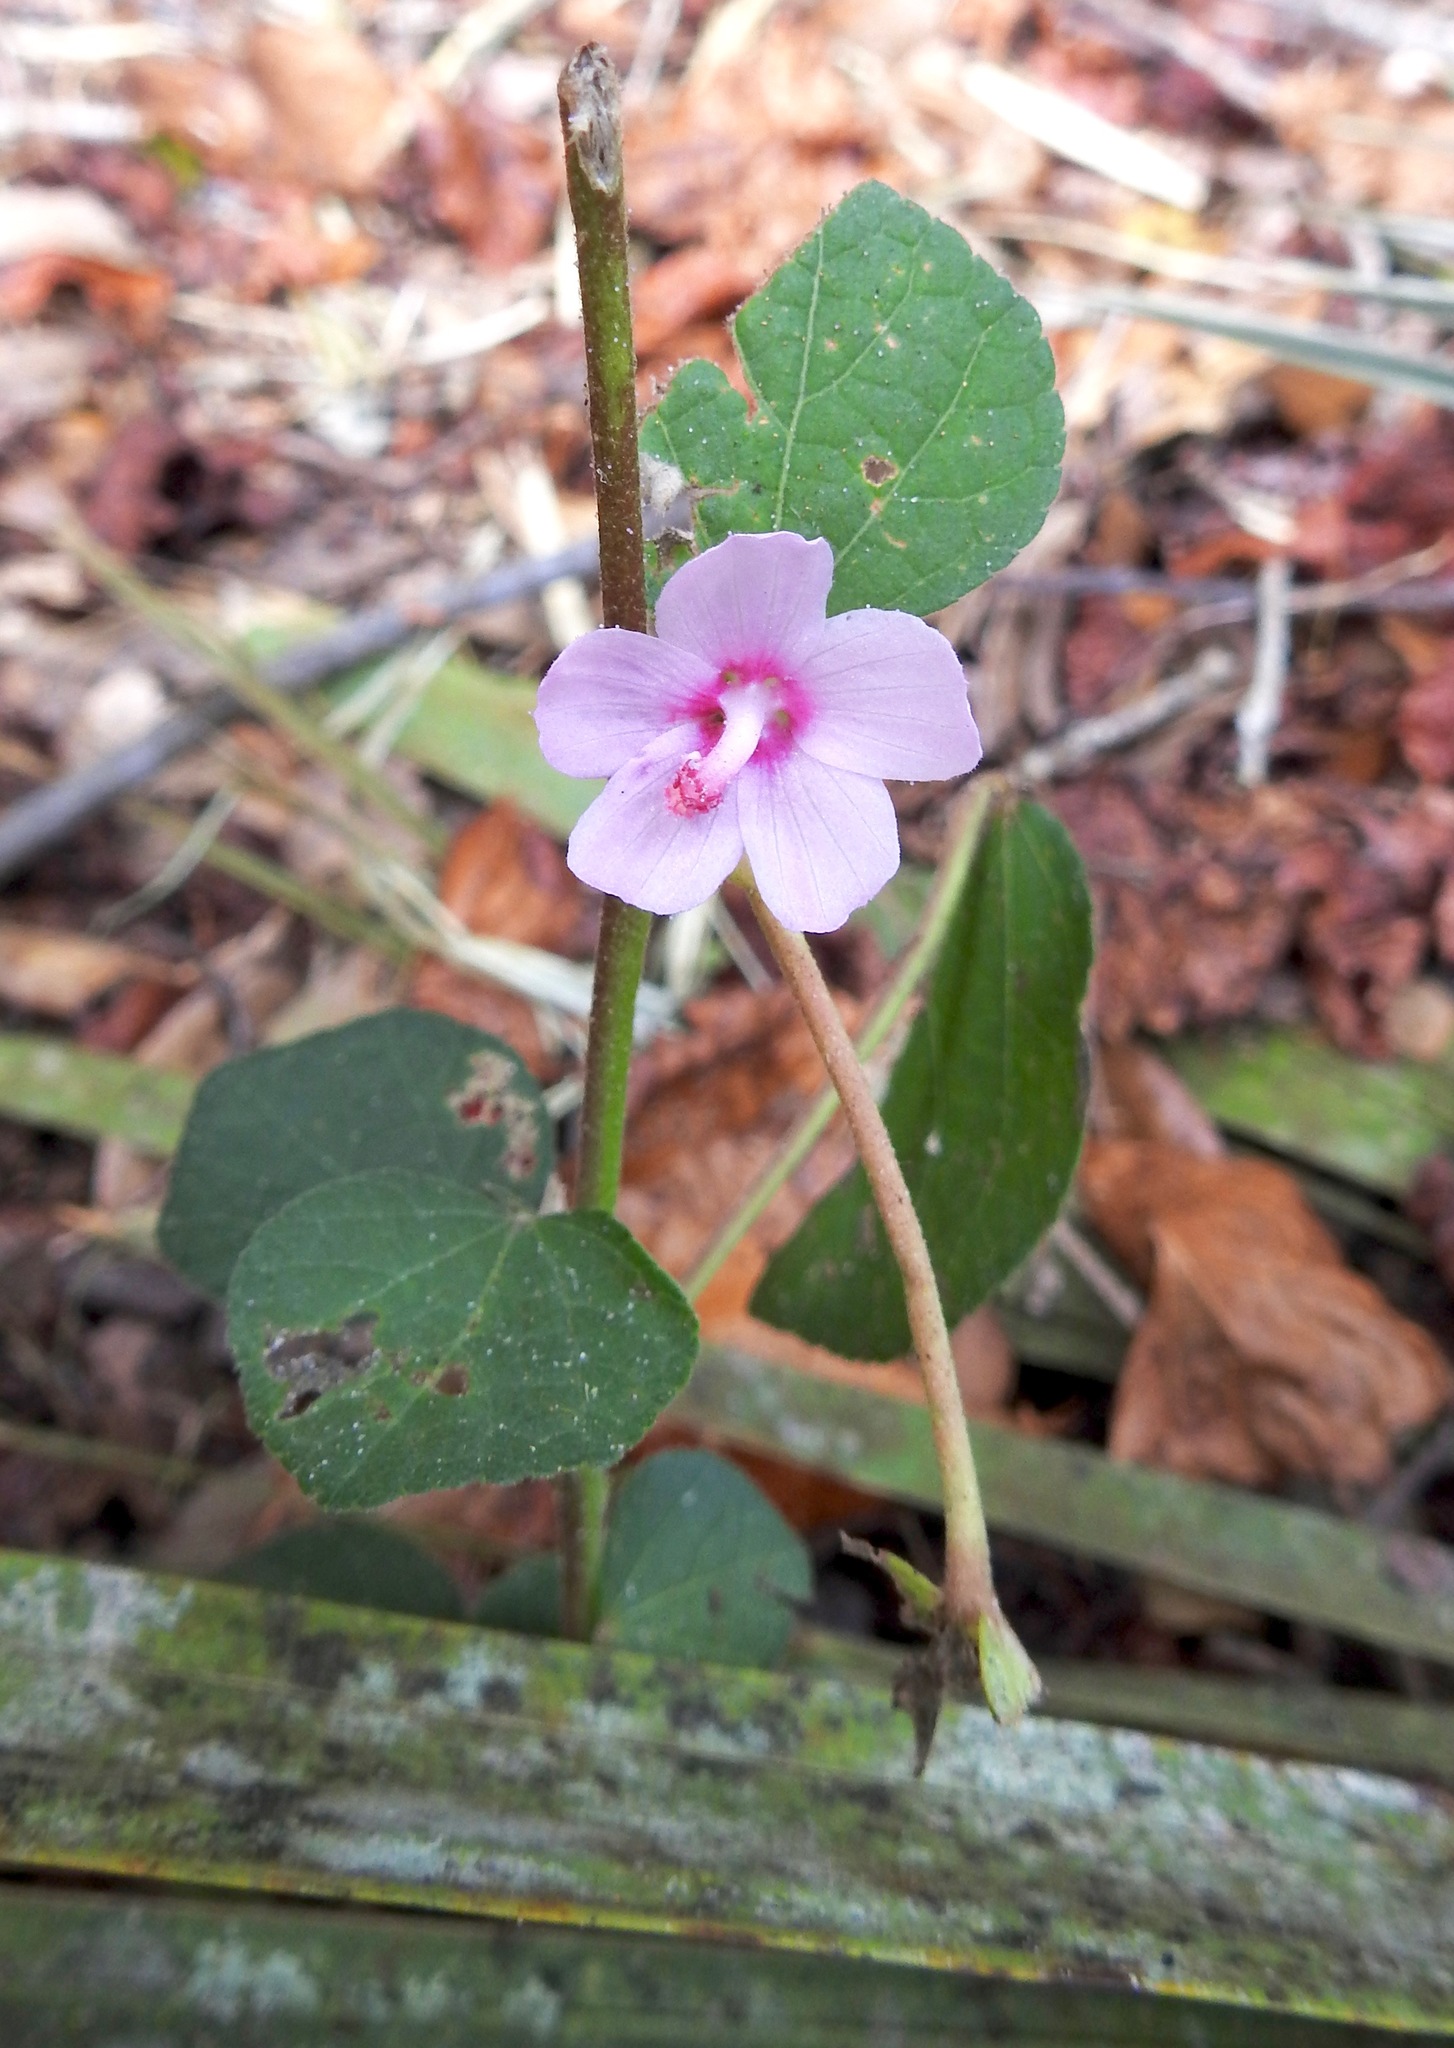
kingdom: Plantae
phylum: Tracheophyta
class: Magnoliopsida
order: Malvales
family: Malvaceae
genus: Urena
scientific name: Urena lobata
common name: Caesarweed
